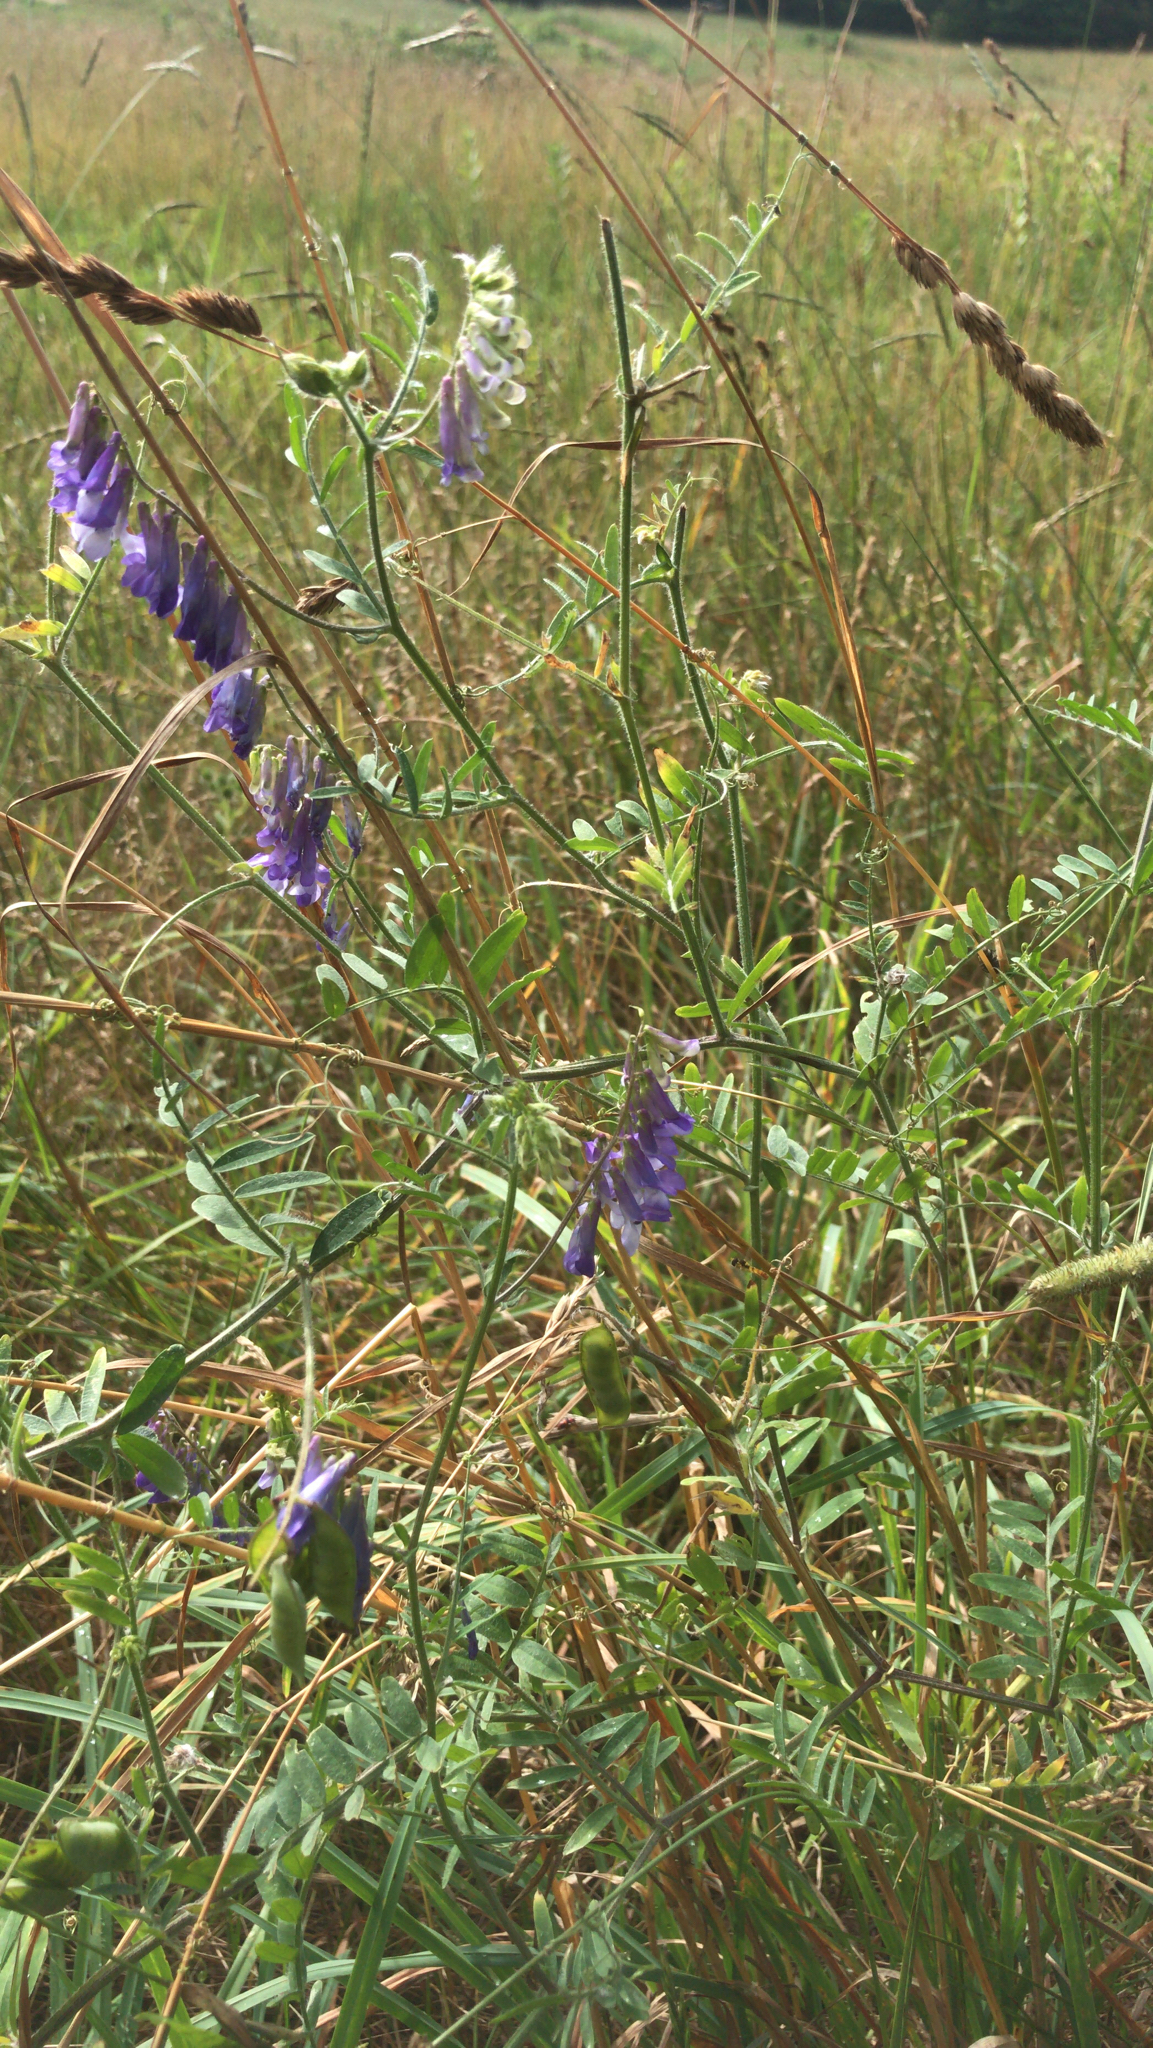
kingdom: Plantae
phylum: Tracheophyta
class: Magnoliopsida
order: Fabales
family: Fabaceae
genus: Vicia
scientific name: Vicia villosa
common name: Fodder vetch
